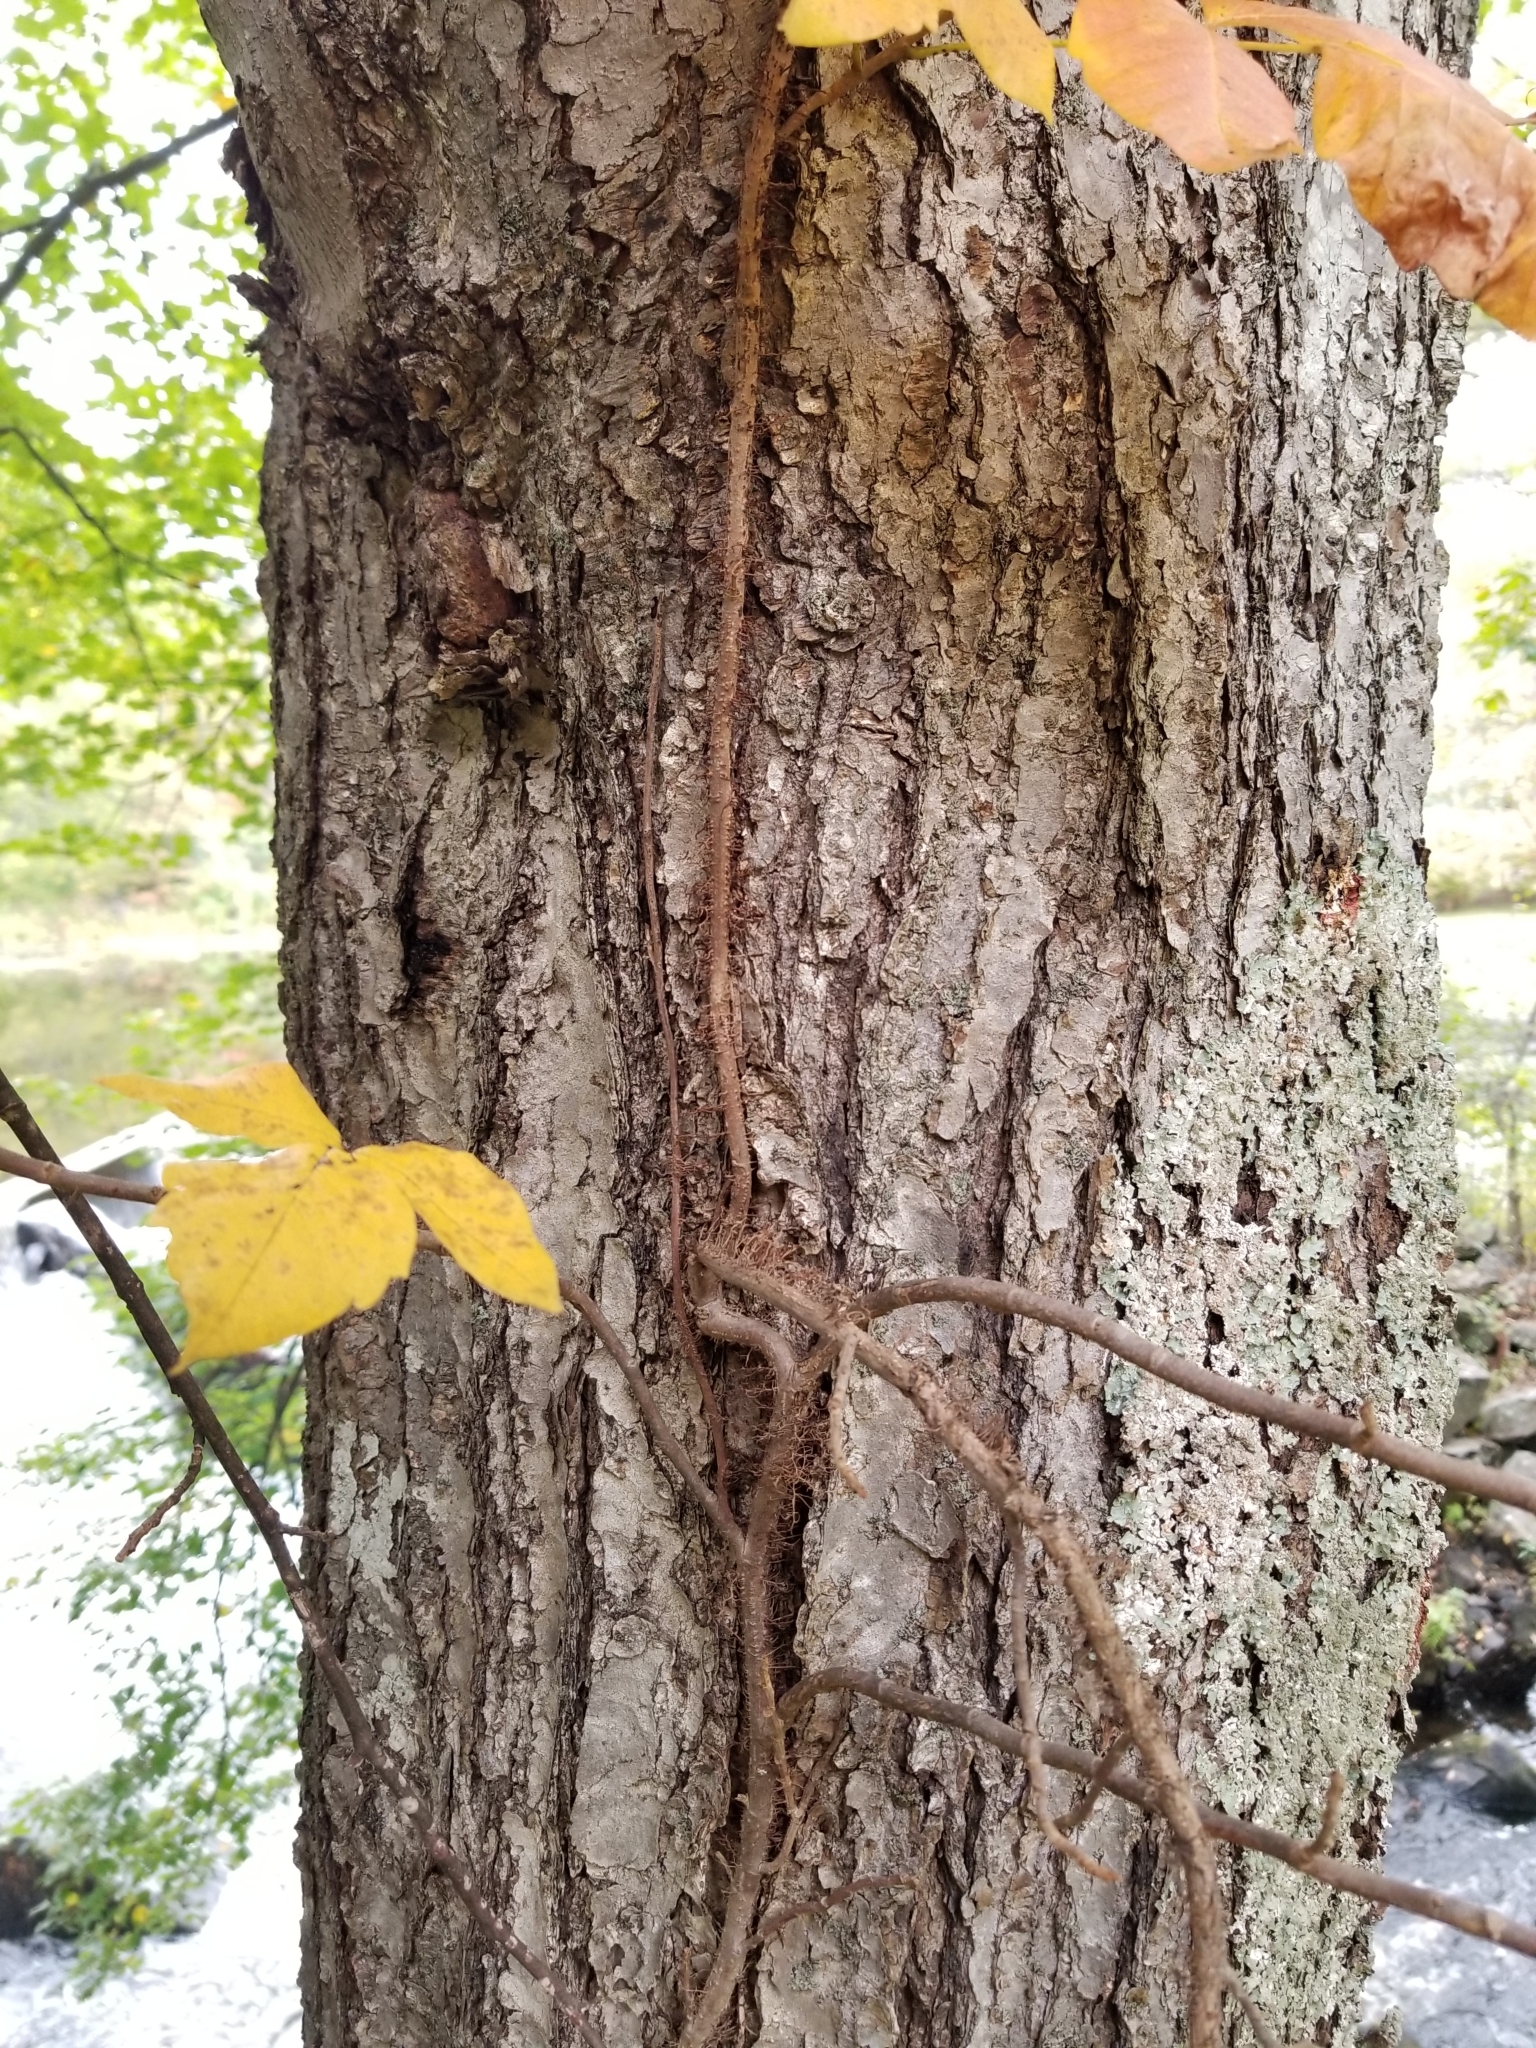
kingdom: Plantae
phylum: Tracheophyta
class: Magnoliopsida
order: Sapindales
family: Anacardiaceae
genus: Toxicodendron
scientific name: Toxicodendron radicans
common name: Poison ivy
